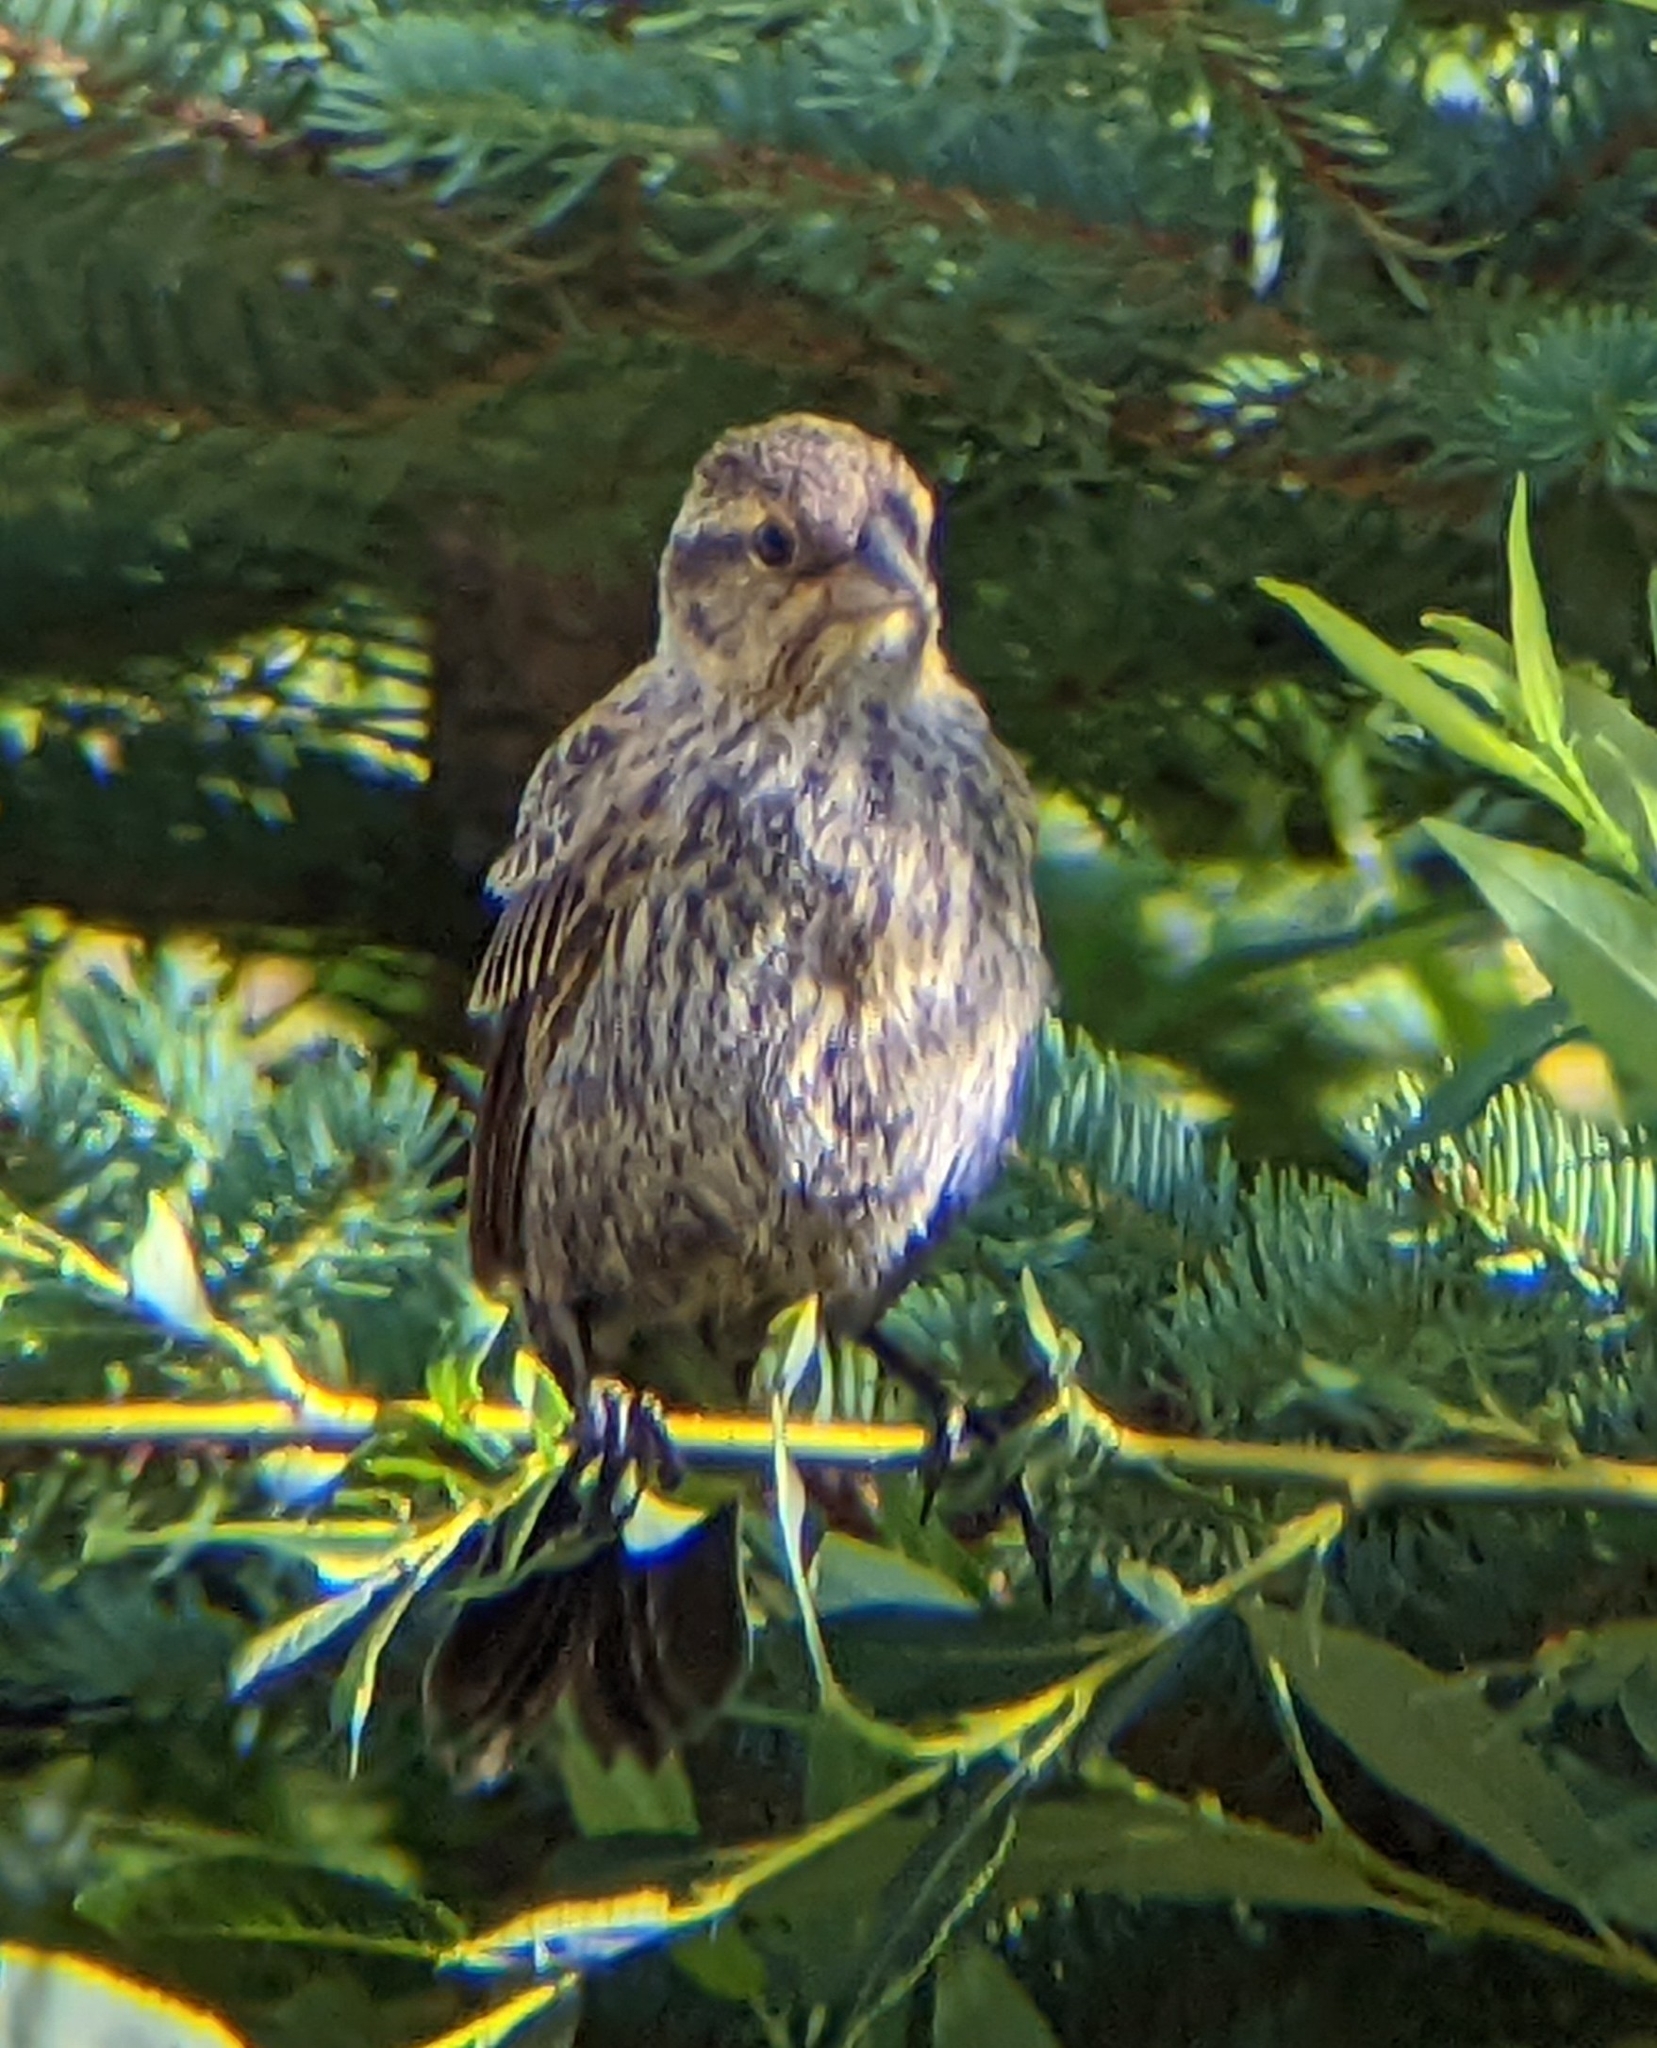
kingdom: Animalia
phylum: Chordata
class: Aves
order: Passeriformes
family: Icteridae
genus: Agelaius
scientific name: Agelaius phoeniceus
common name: Red-winged blackbird
